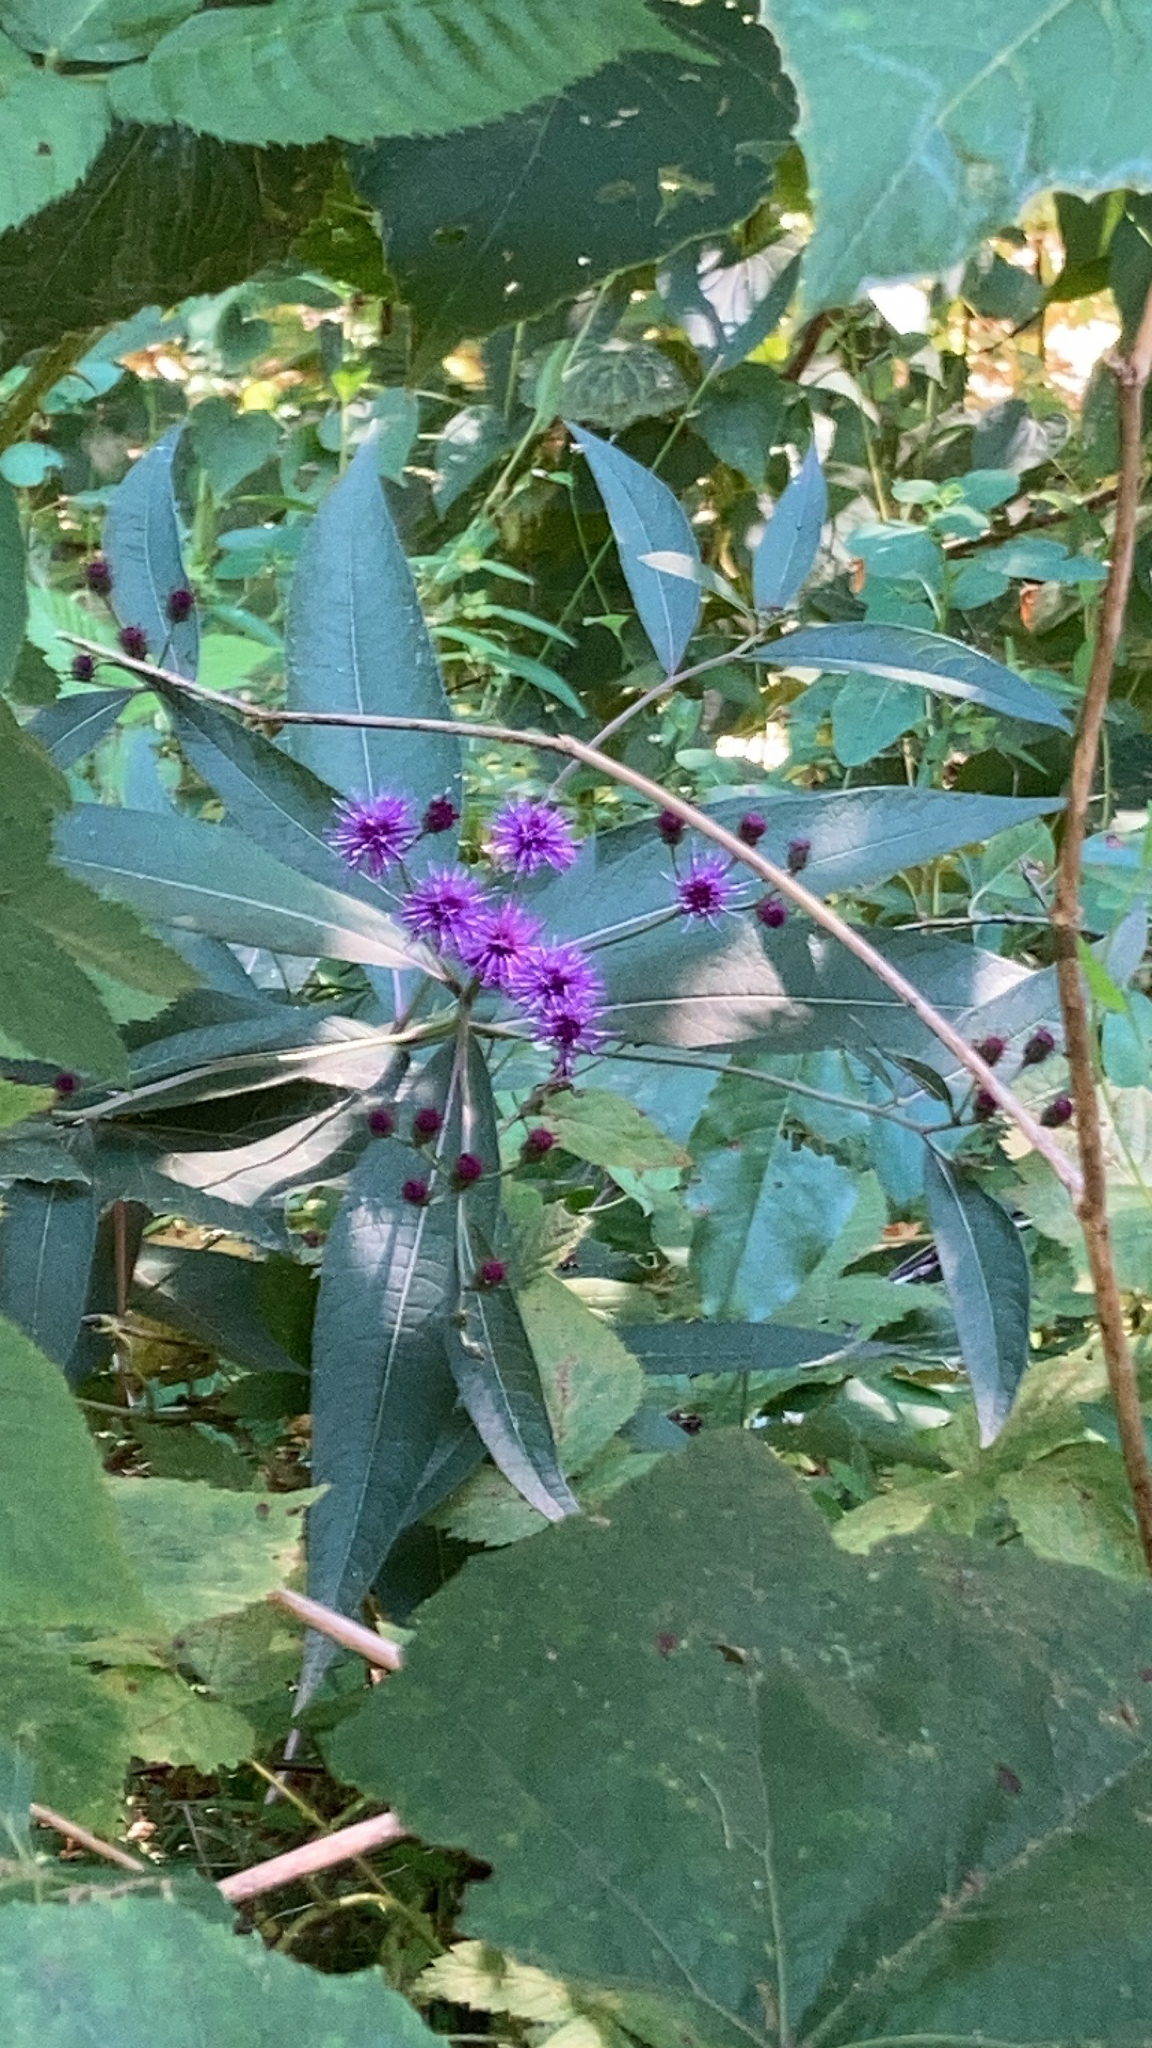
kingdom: Plantae
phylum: Tracheophyta
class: Magnoliopsida
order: Asterales
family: Asteraceae
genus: Vernonia
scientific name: Vernonia noveboracensis
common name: New york ironweed
